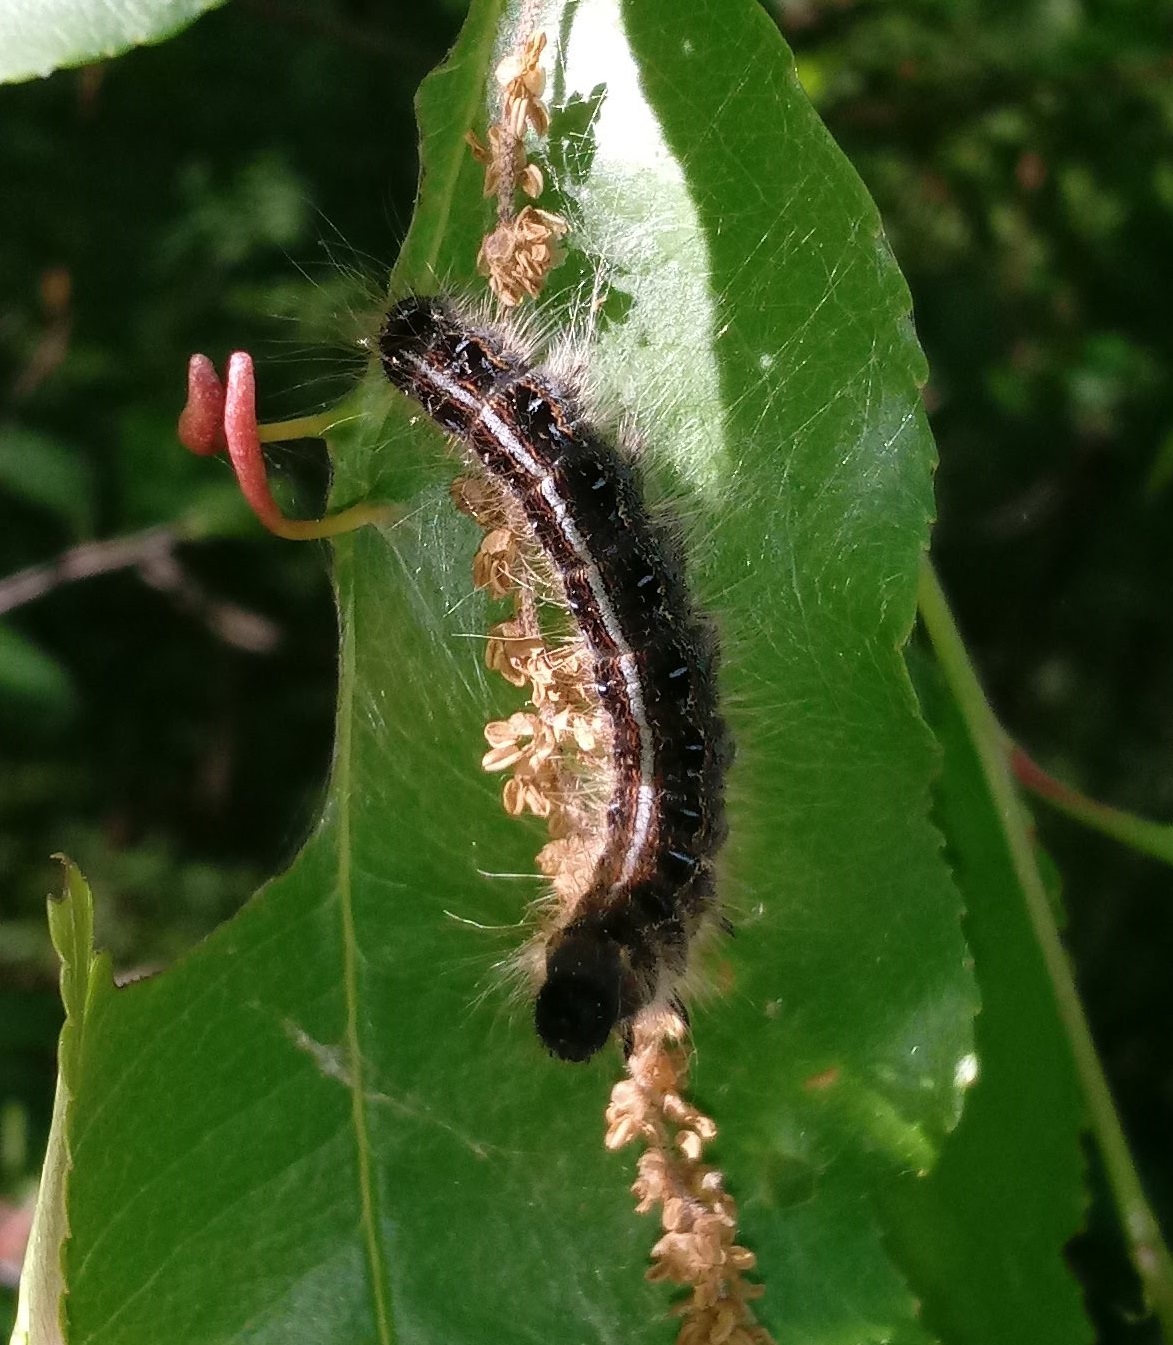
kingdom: Animalia
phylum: Arthropoda
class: Insecta
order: Lepidoptera
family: Lasiocampidae
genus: Malacosoma
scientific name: Malacosoma americana
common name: Eastern tent caterpillar moth
